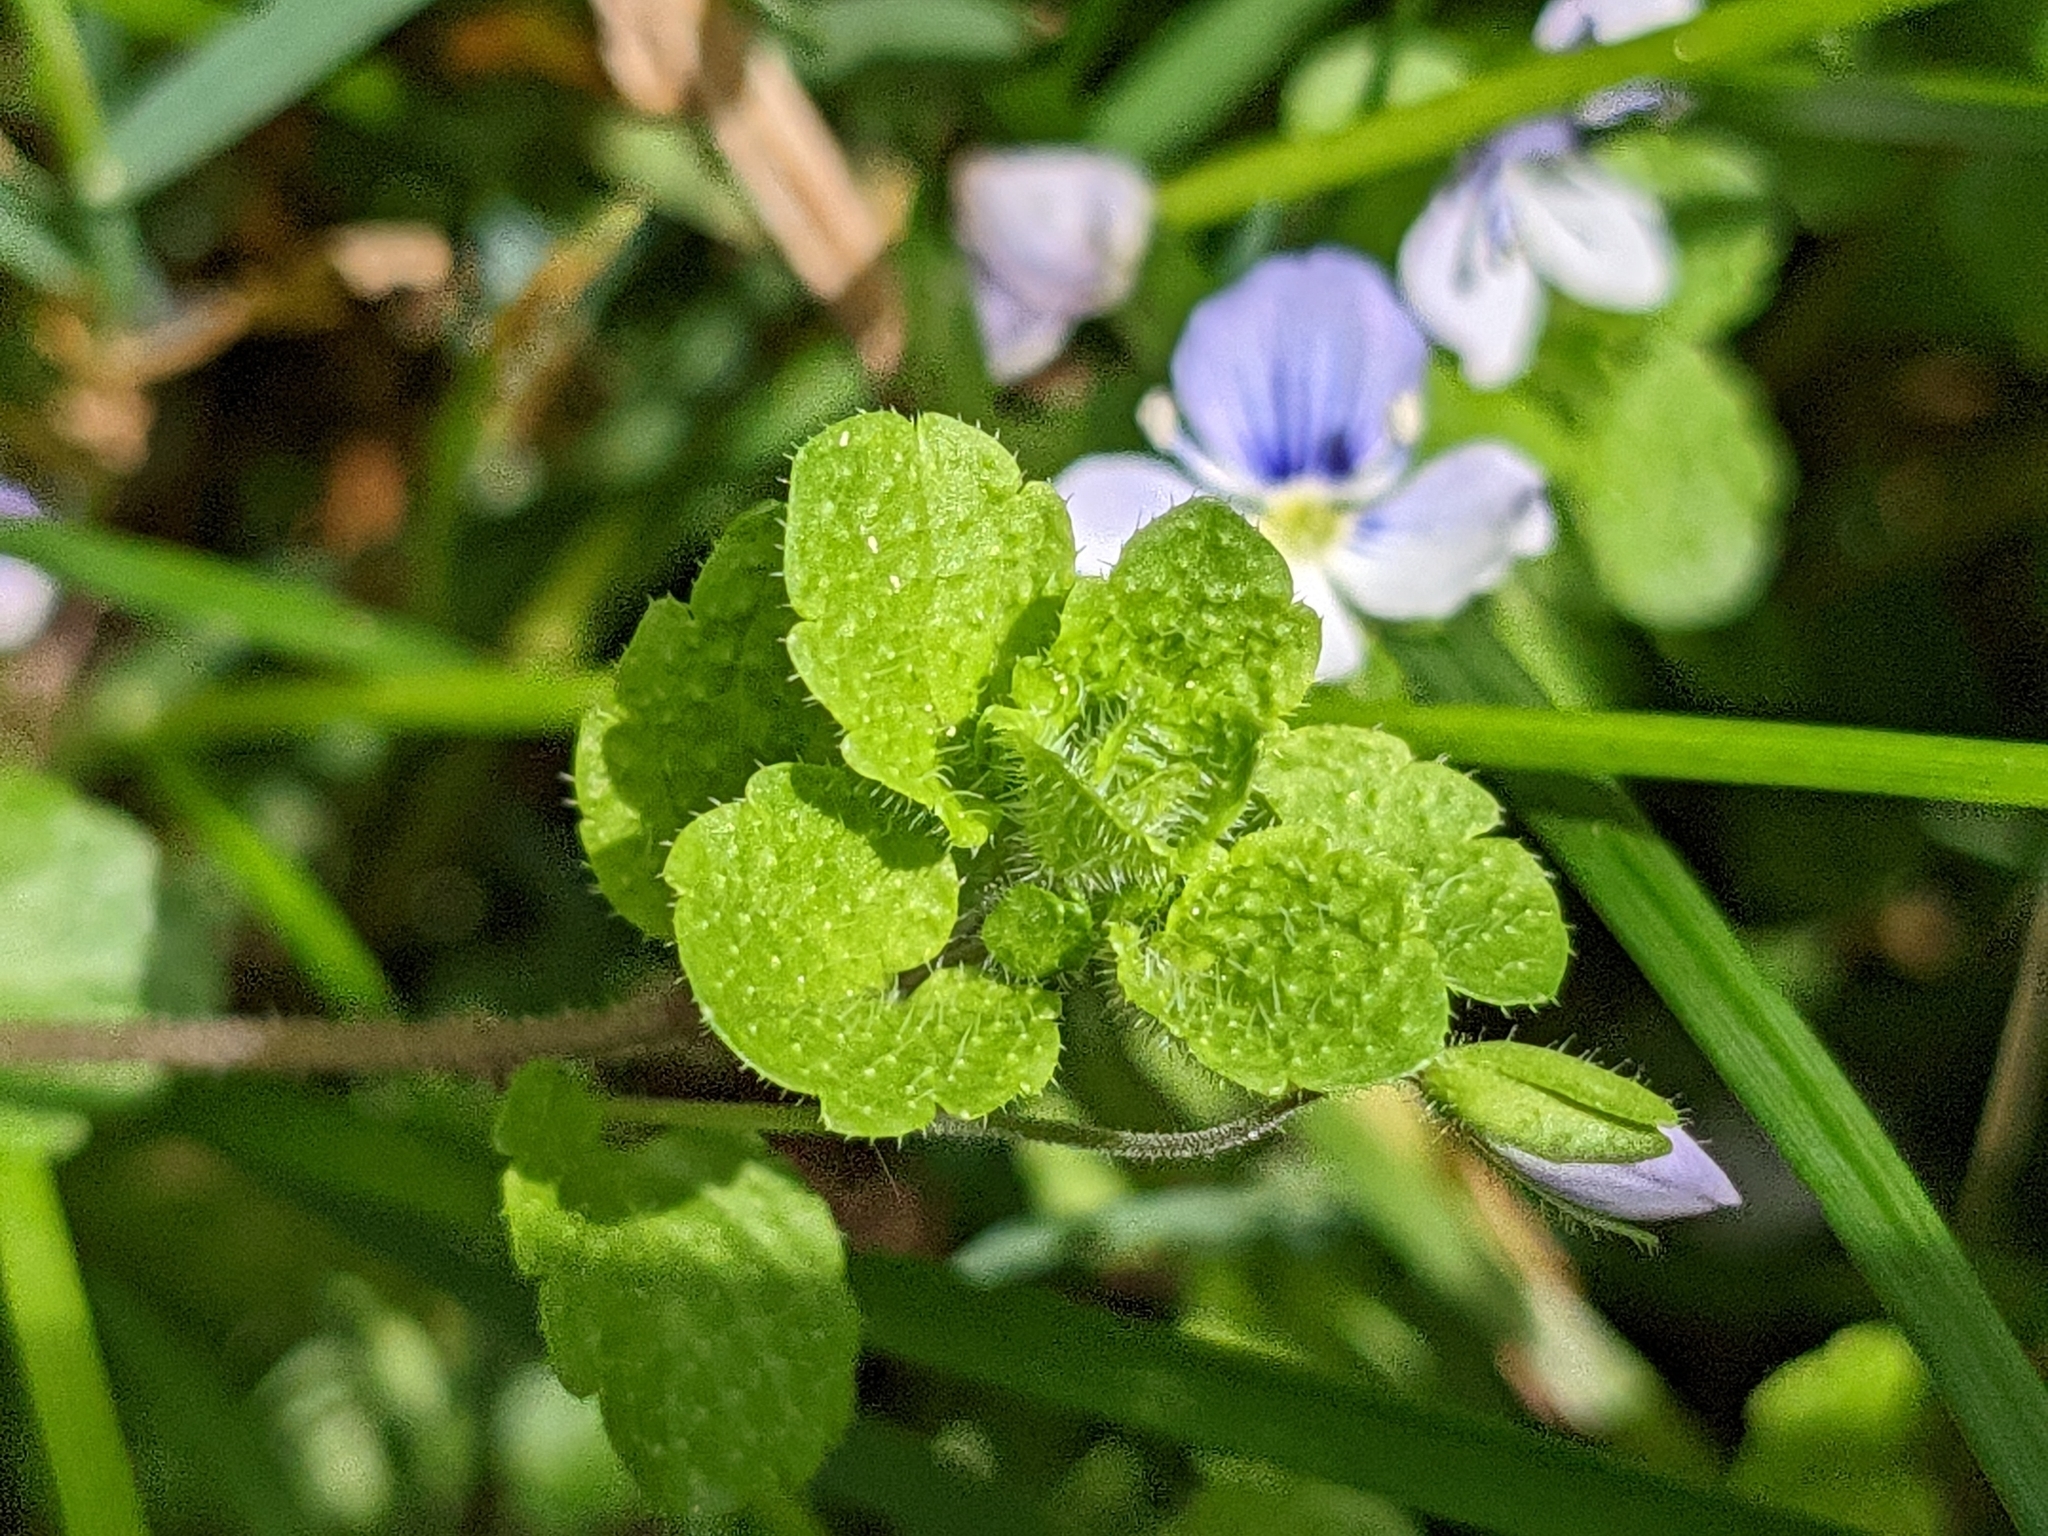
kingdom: Plantae
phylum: Tracheophyta
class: Magnoliopsida
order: Lamiales
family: Plantaginaceae
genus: Veronica
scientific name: Veronica filiformis
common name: Slender speedwell
